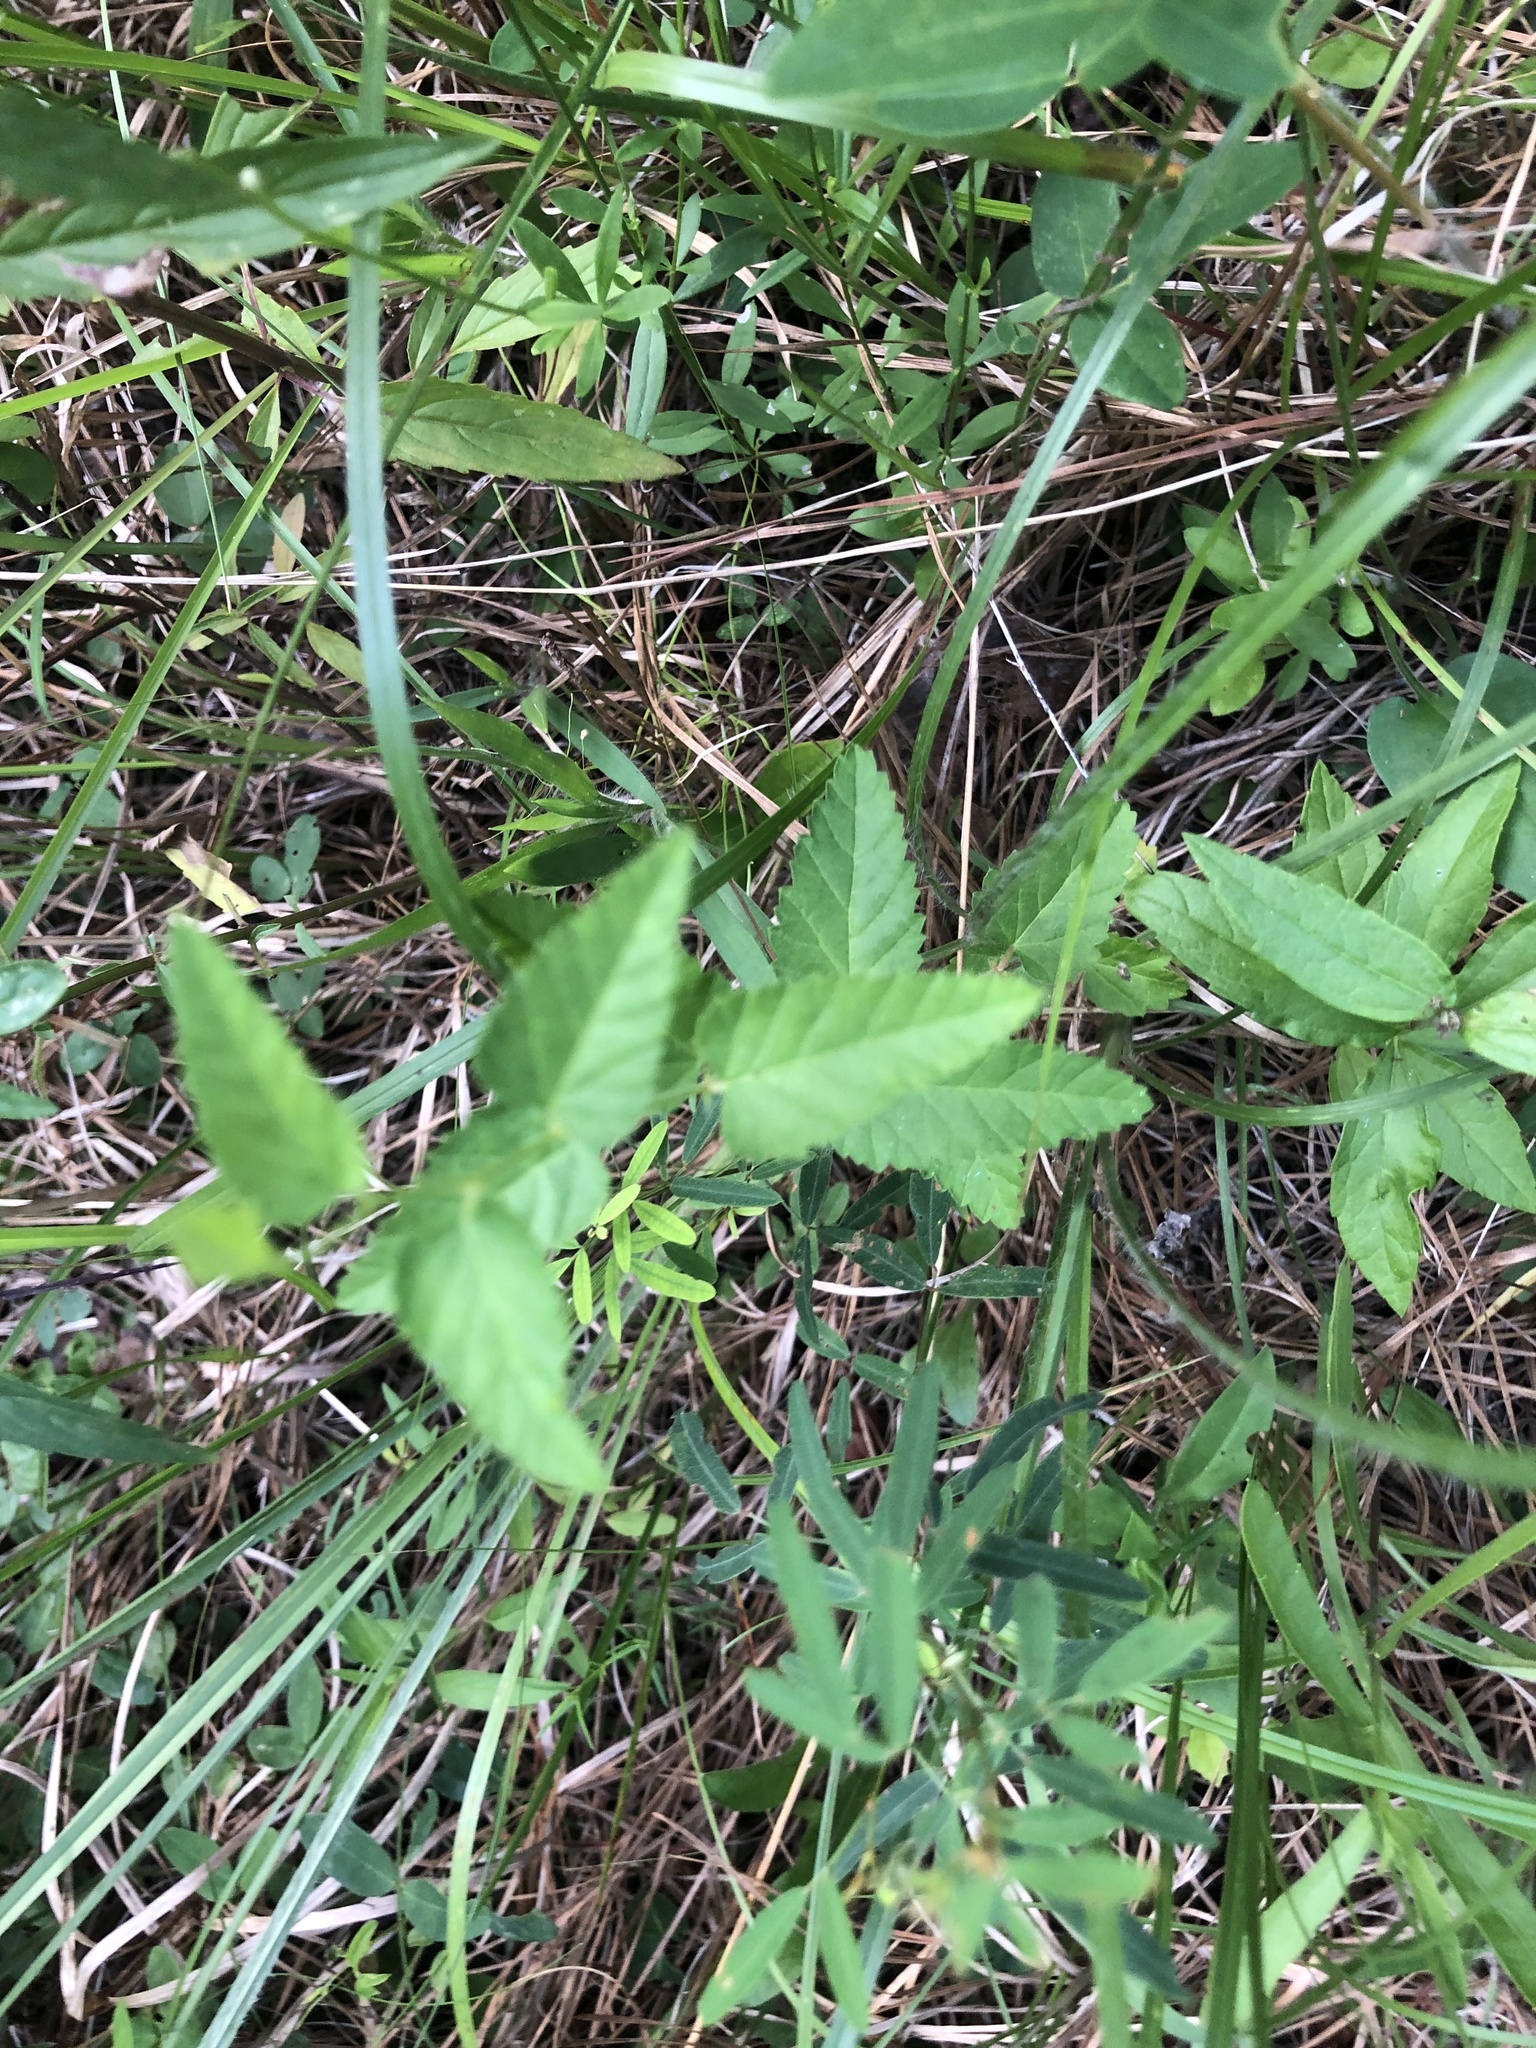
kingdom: Plantae
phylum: Tracheophyta
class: Magnoliopsida
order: Malpighiales
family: Euphorbiaceae
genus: Tragia
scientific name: Tragia urticifolia
